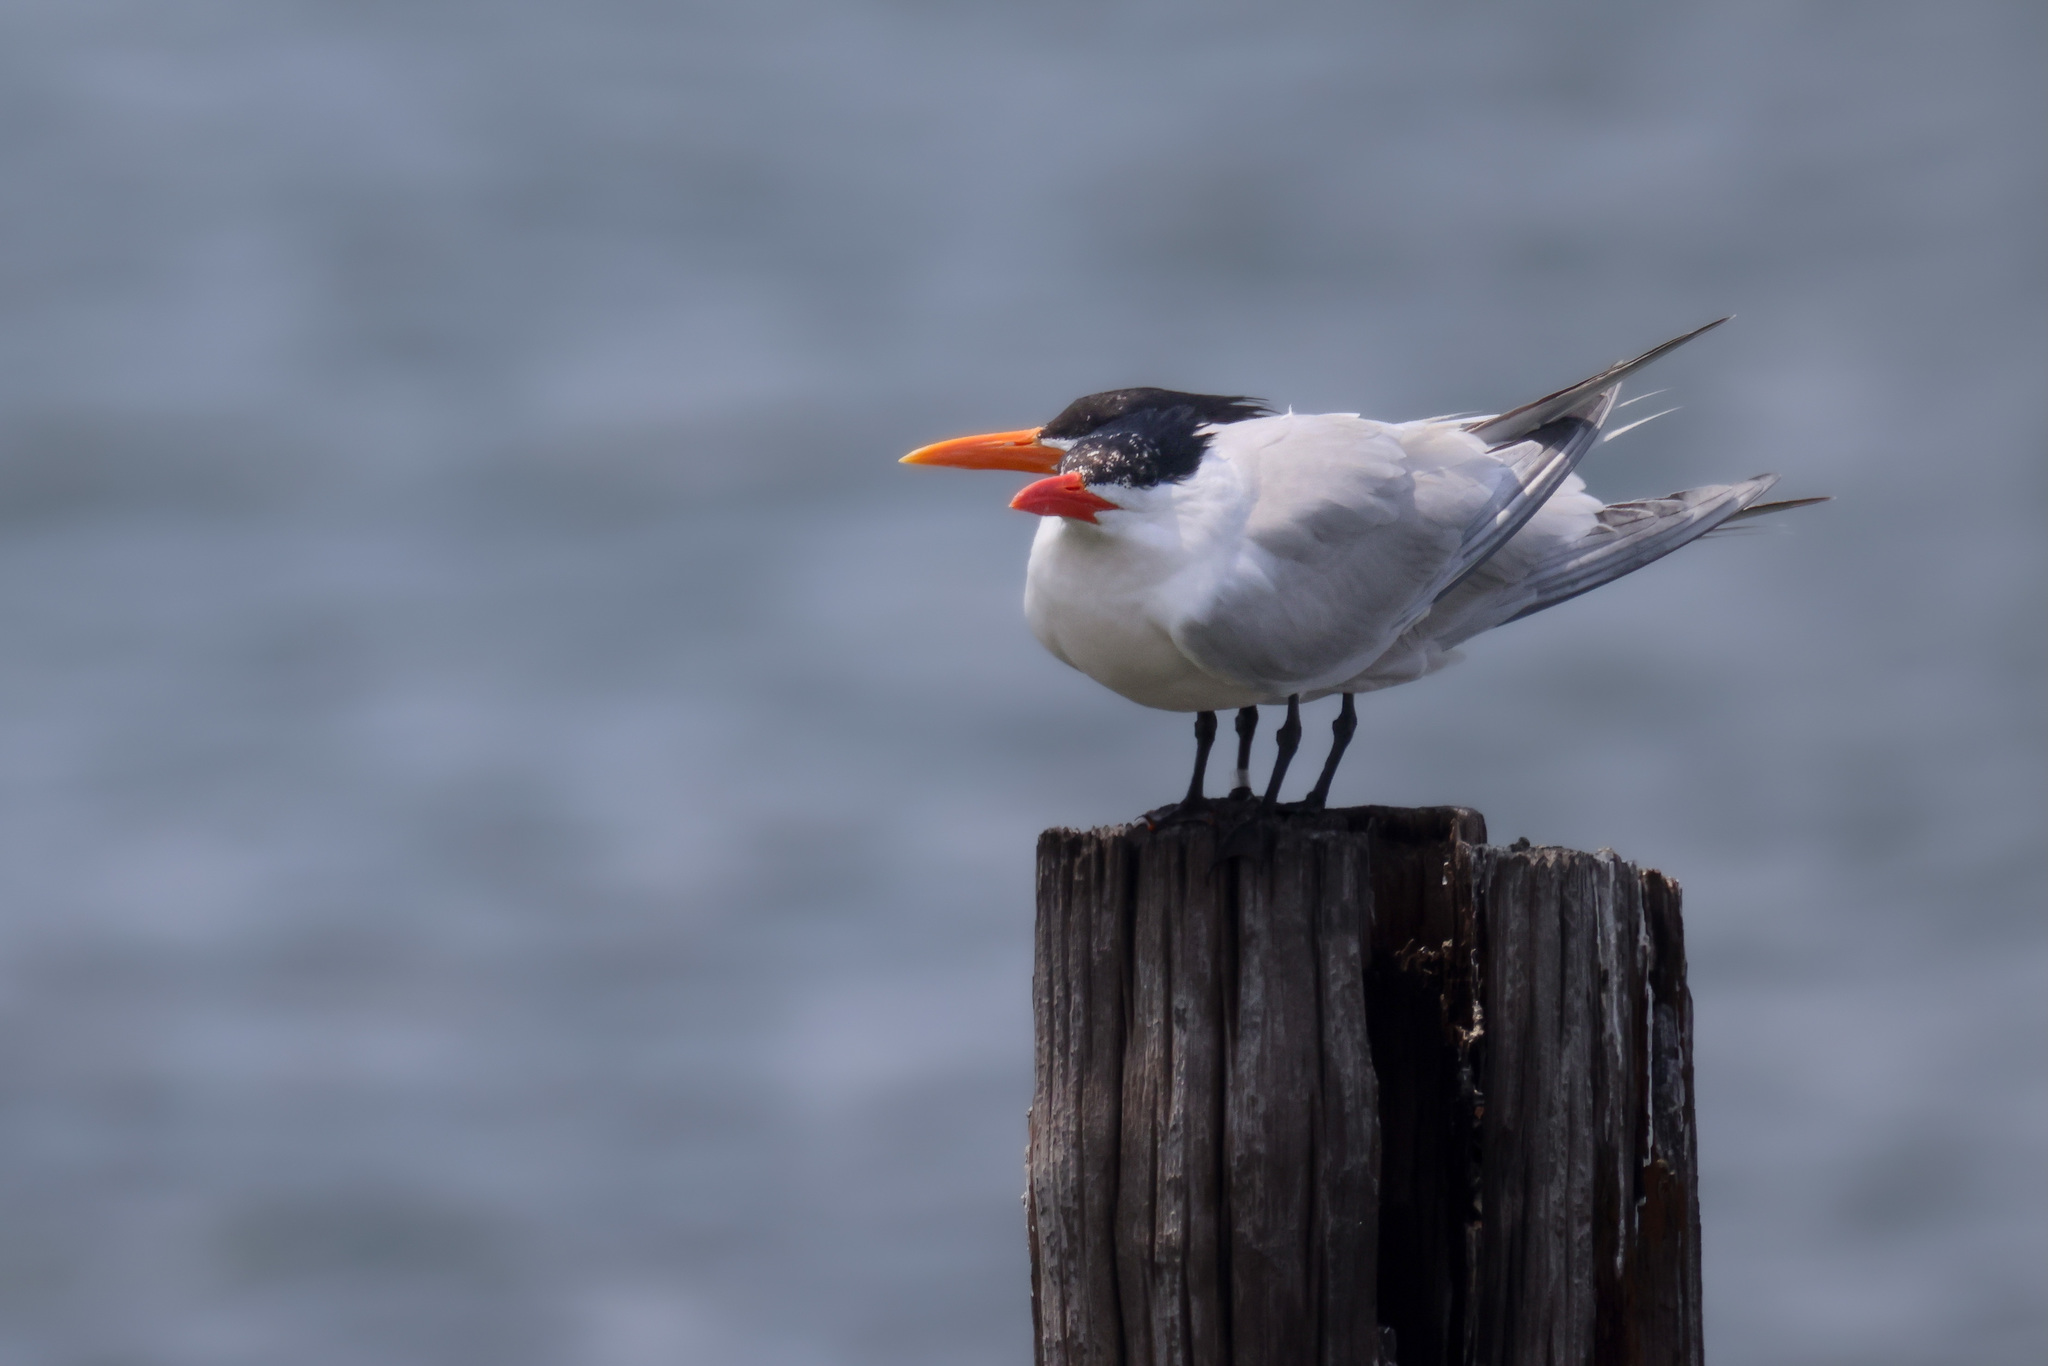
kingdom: Animalia
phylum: Chordata
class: Aves
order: Charadriiformes
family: Laridae
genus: Thalasseus
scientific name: Thalasseus maximus
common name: Royal tern
